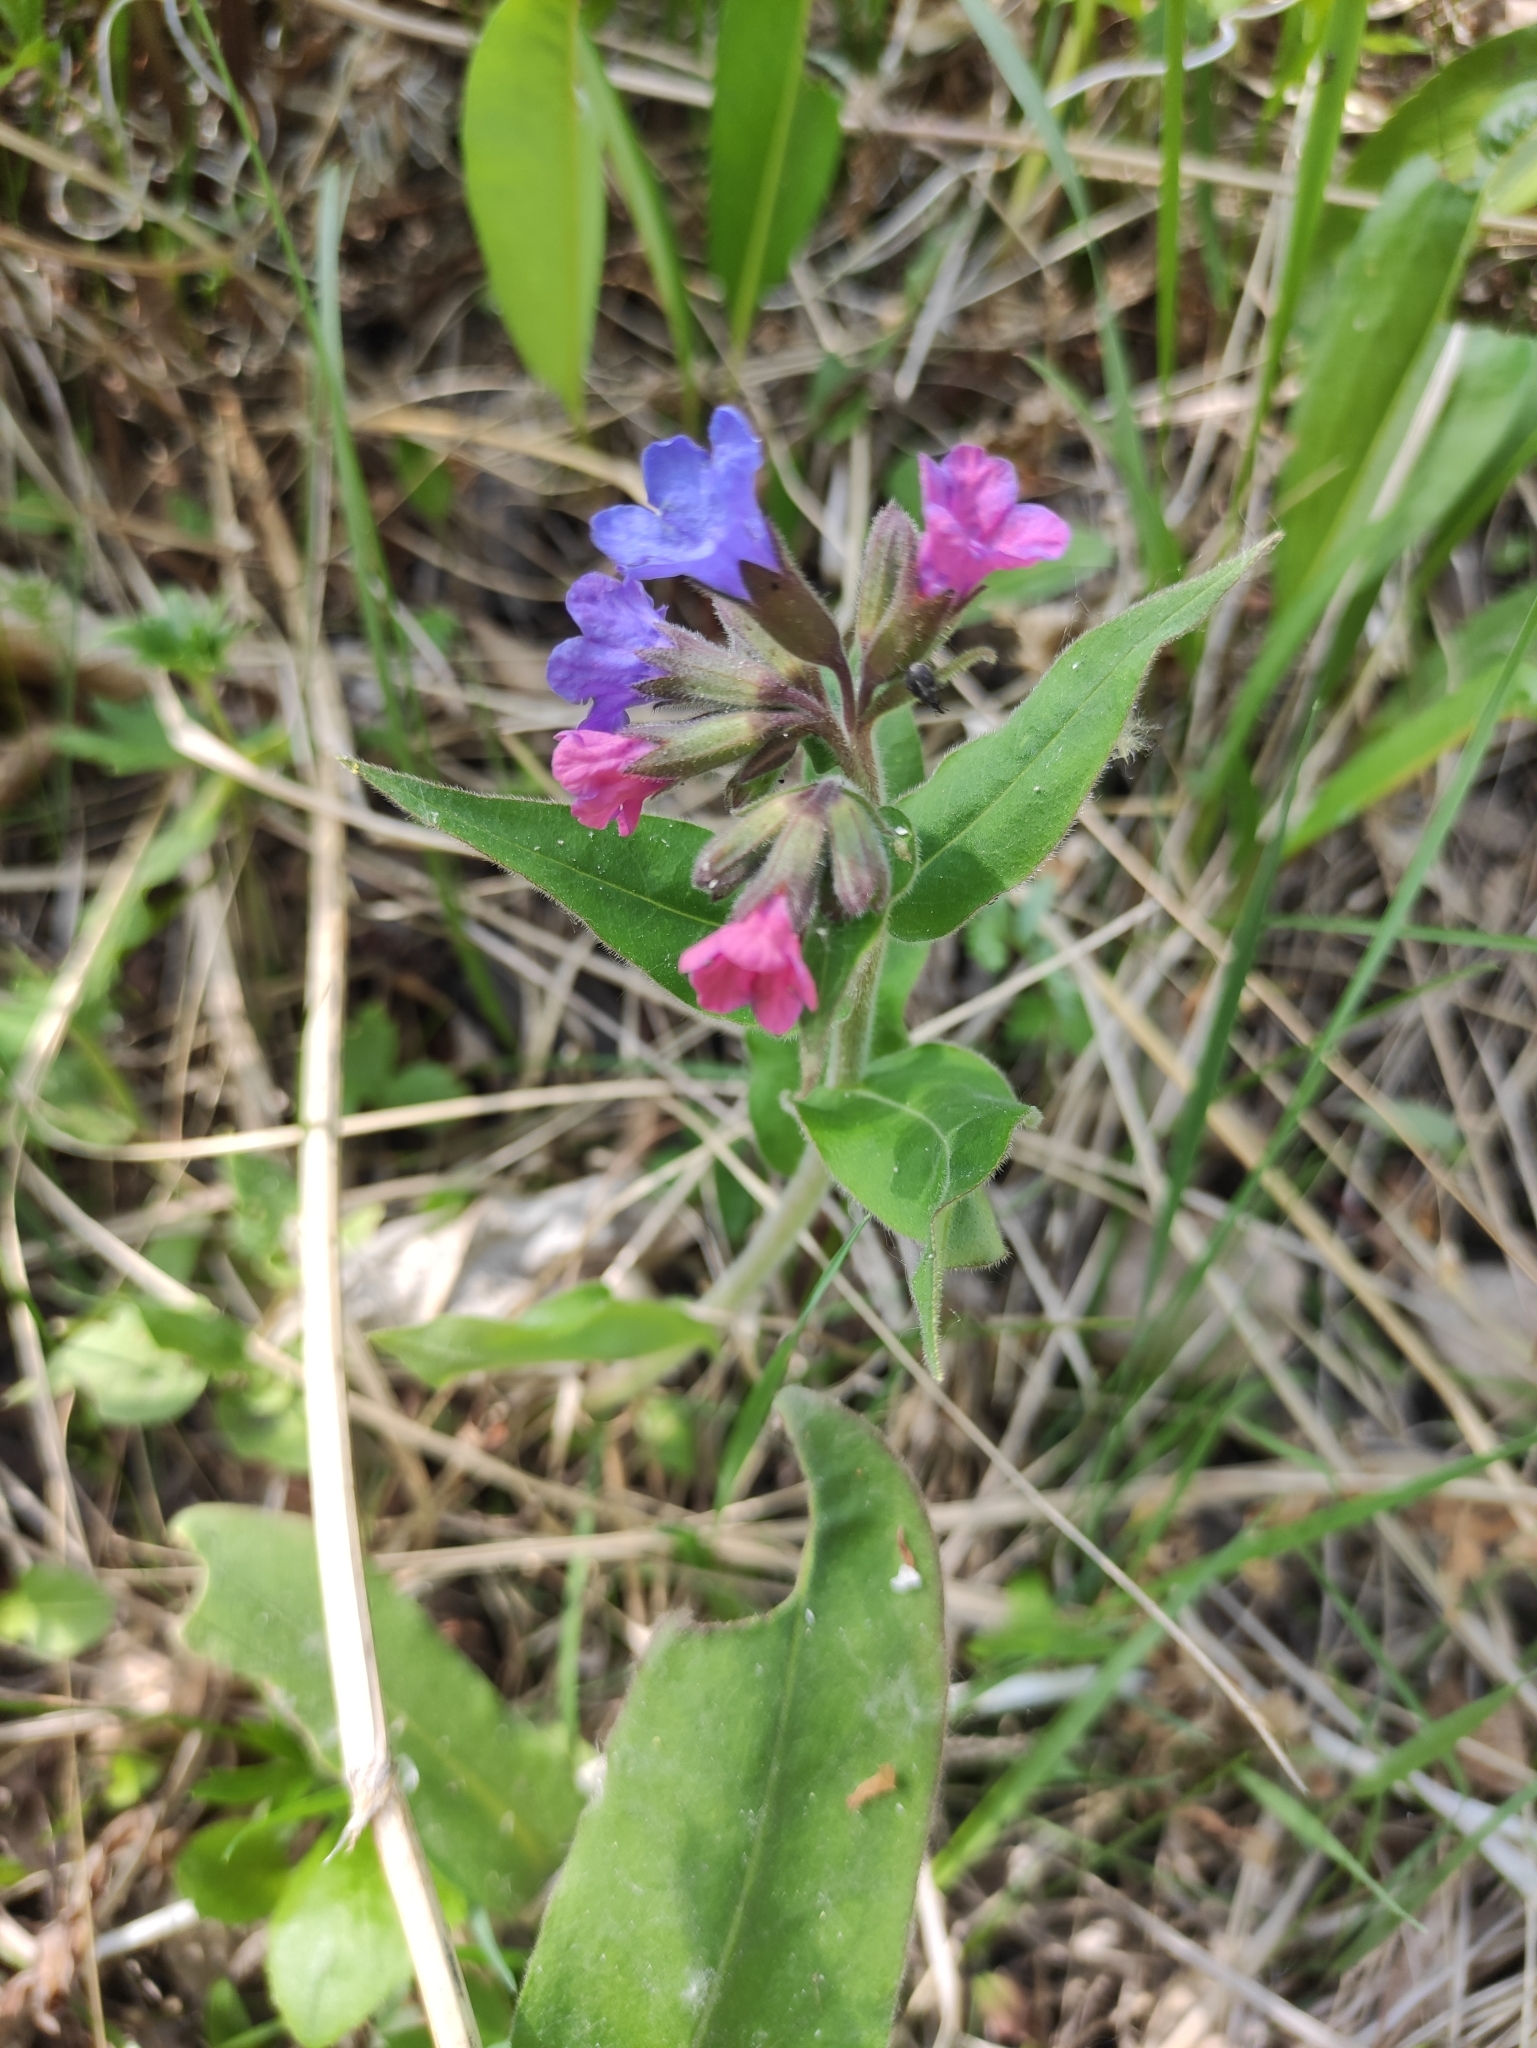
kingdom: Plantae
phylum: Tracheophyta
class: Magnoliopsida
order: Boraginales
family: Boraginaceae
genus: Pulmonaria
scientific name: Pulmonaria mollis
